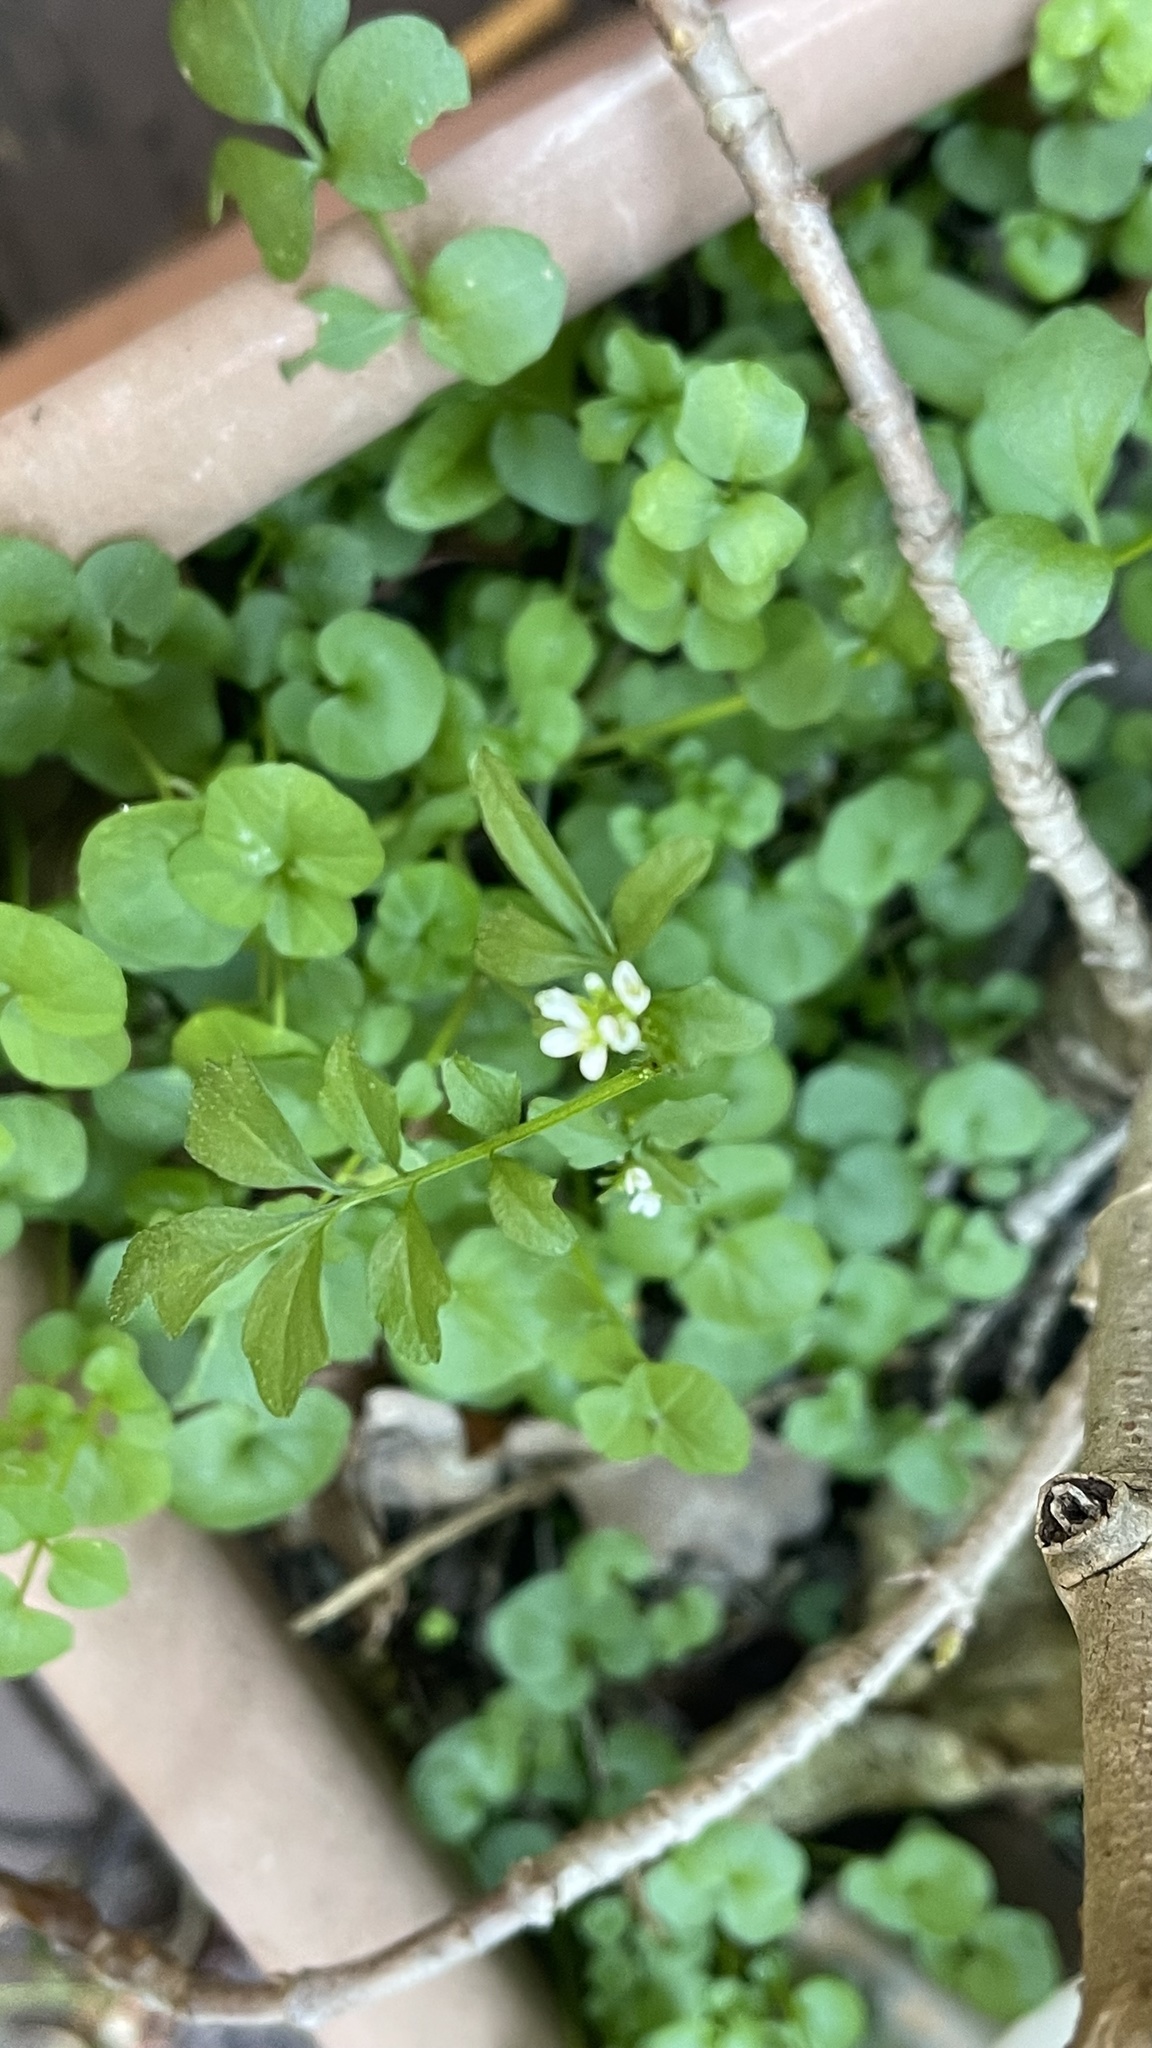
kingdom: Plantae
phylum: Tracheophyta
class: Magnoliopsida
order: Brassicales
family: Brassicaceae
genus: Cardamine
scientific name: Cardamine hirsuta
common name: Hairy bittercress
